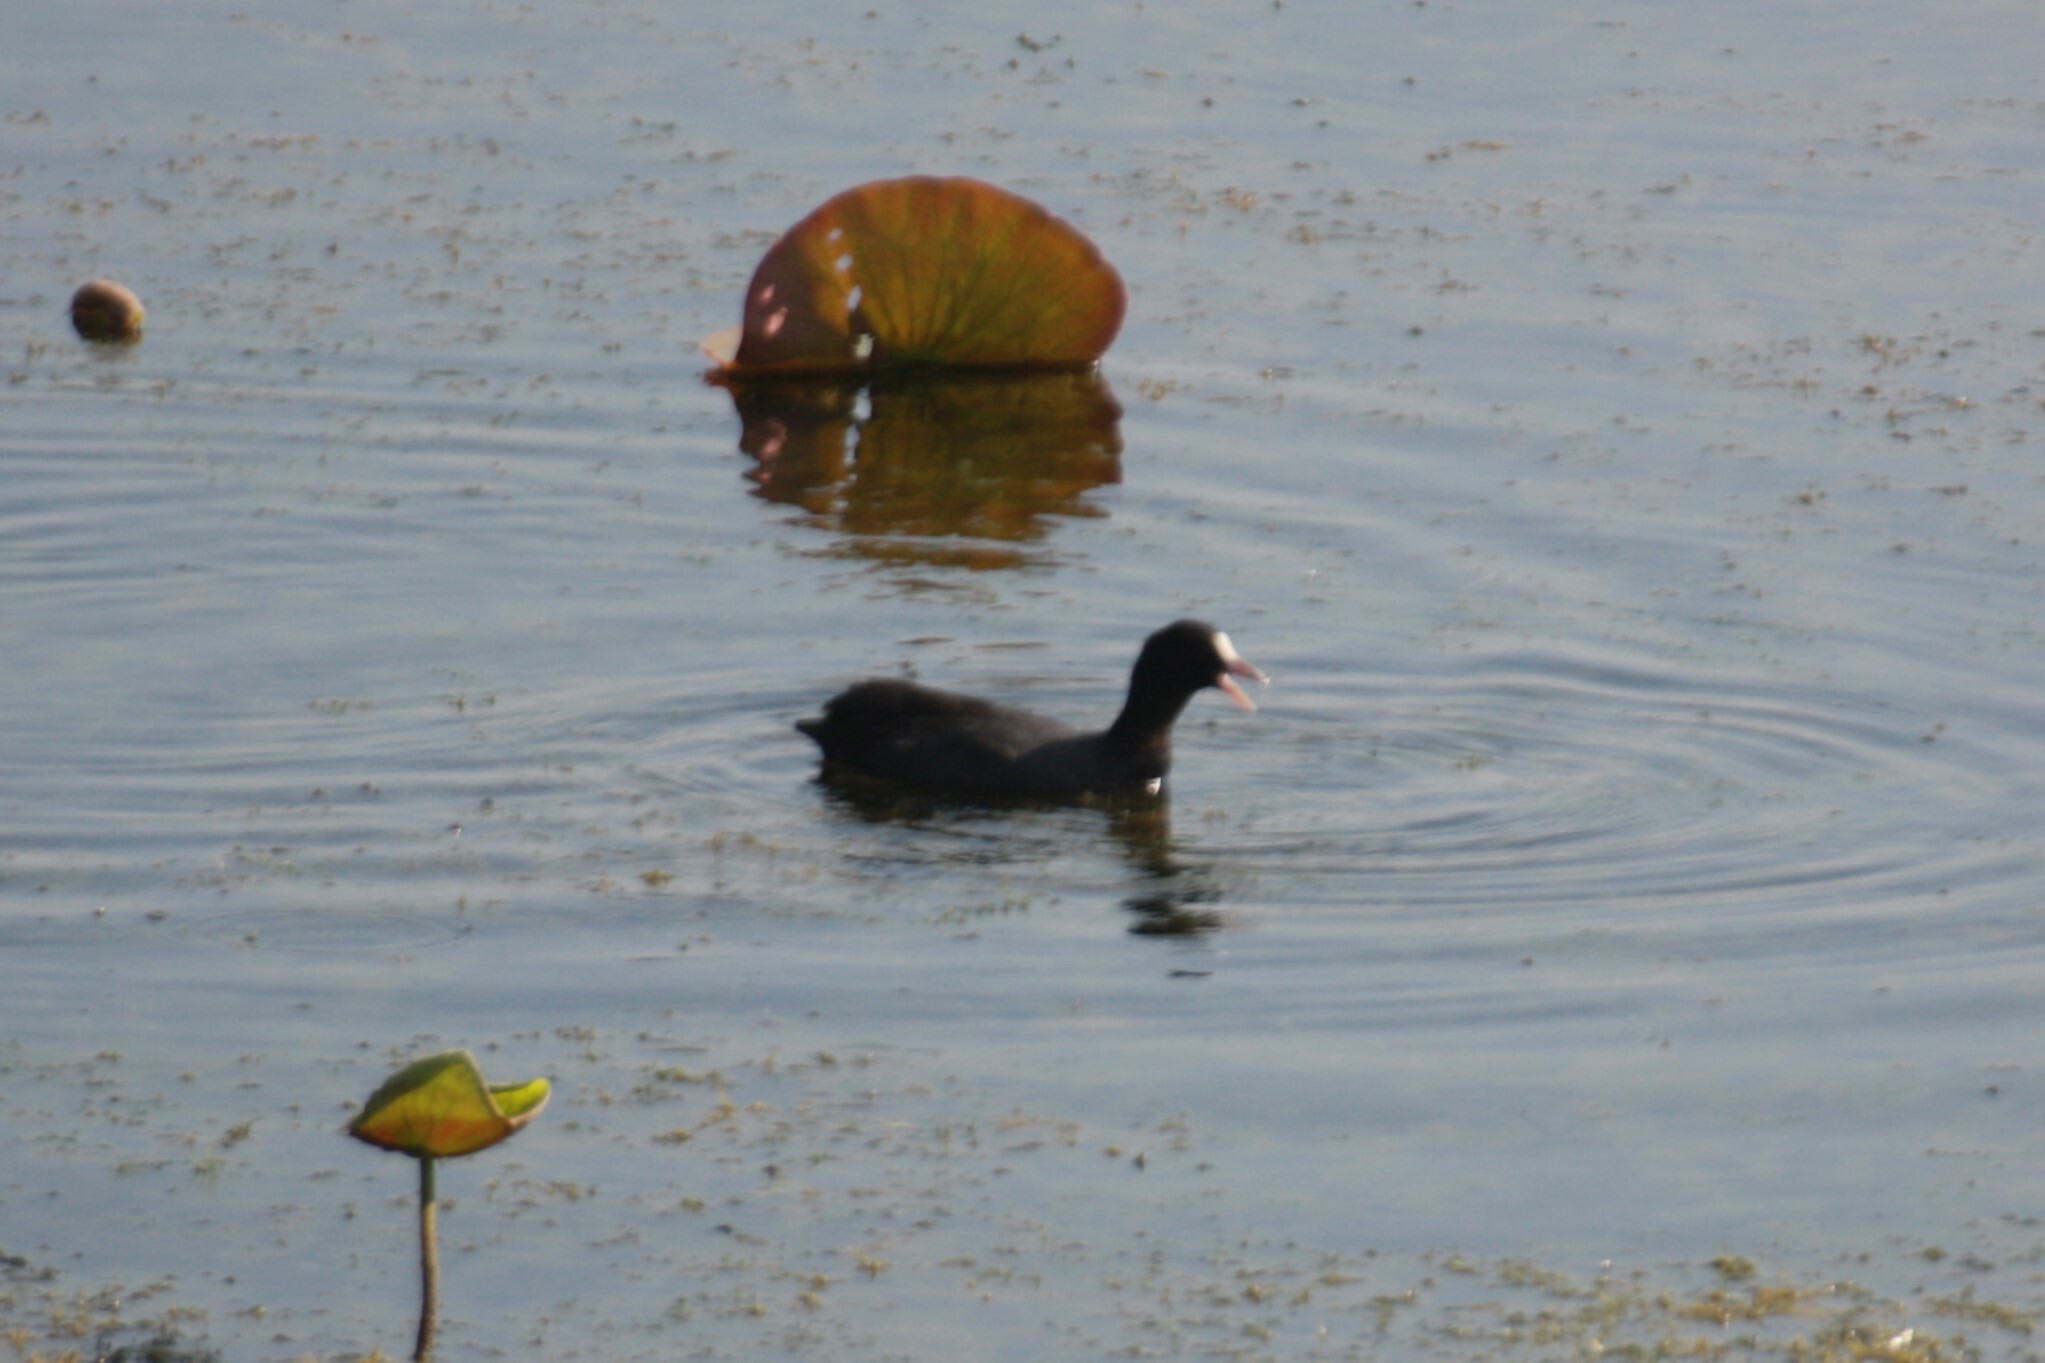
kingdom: Animalia
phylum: Chordata
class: Aves
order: Gruiformes
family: Rallidae
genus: Fulica
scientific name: Fulica atra
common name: Eurasian coot
